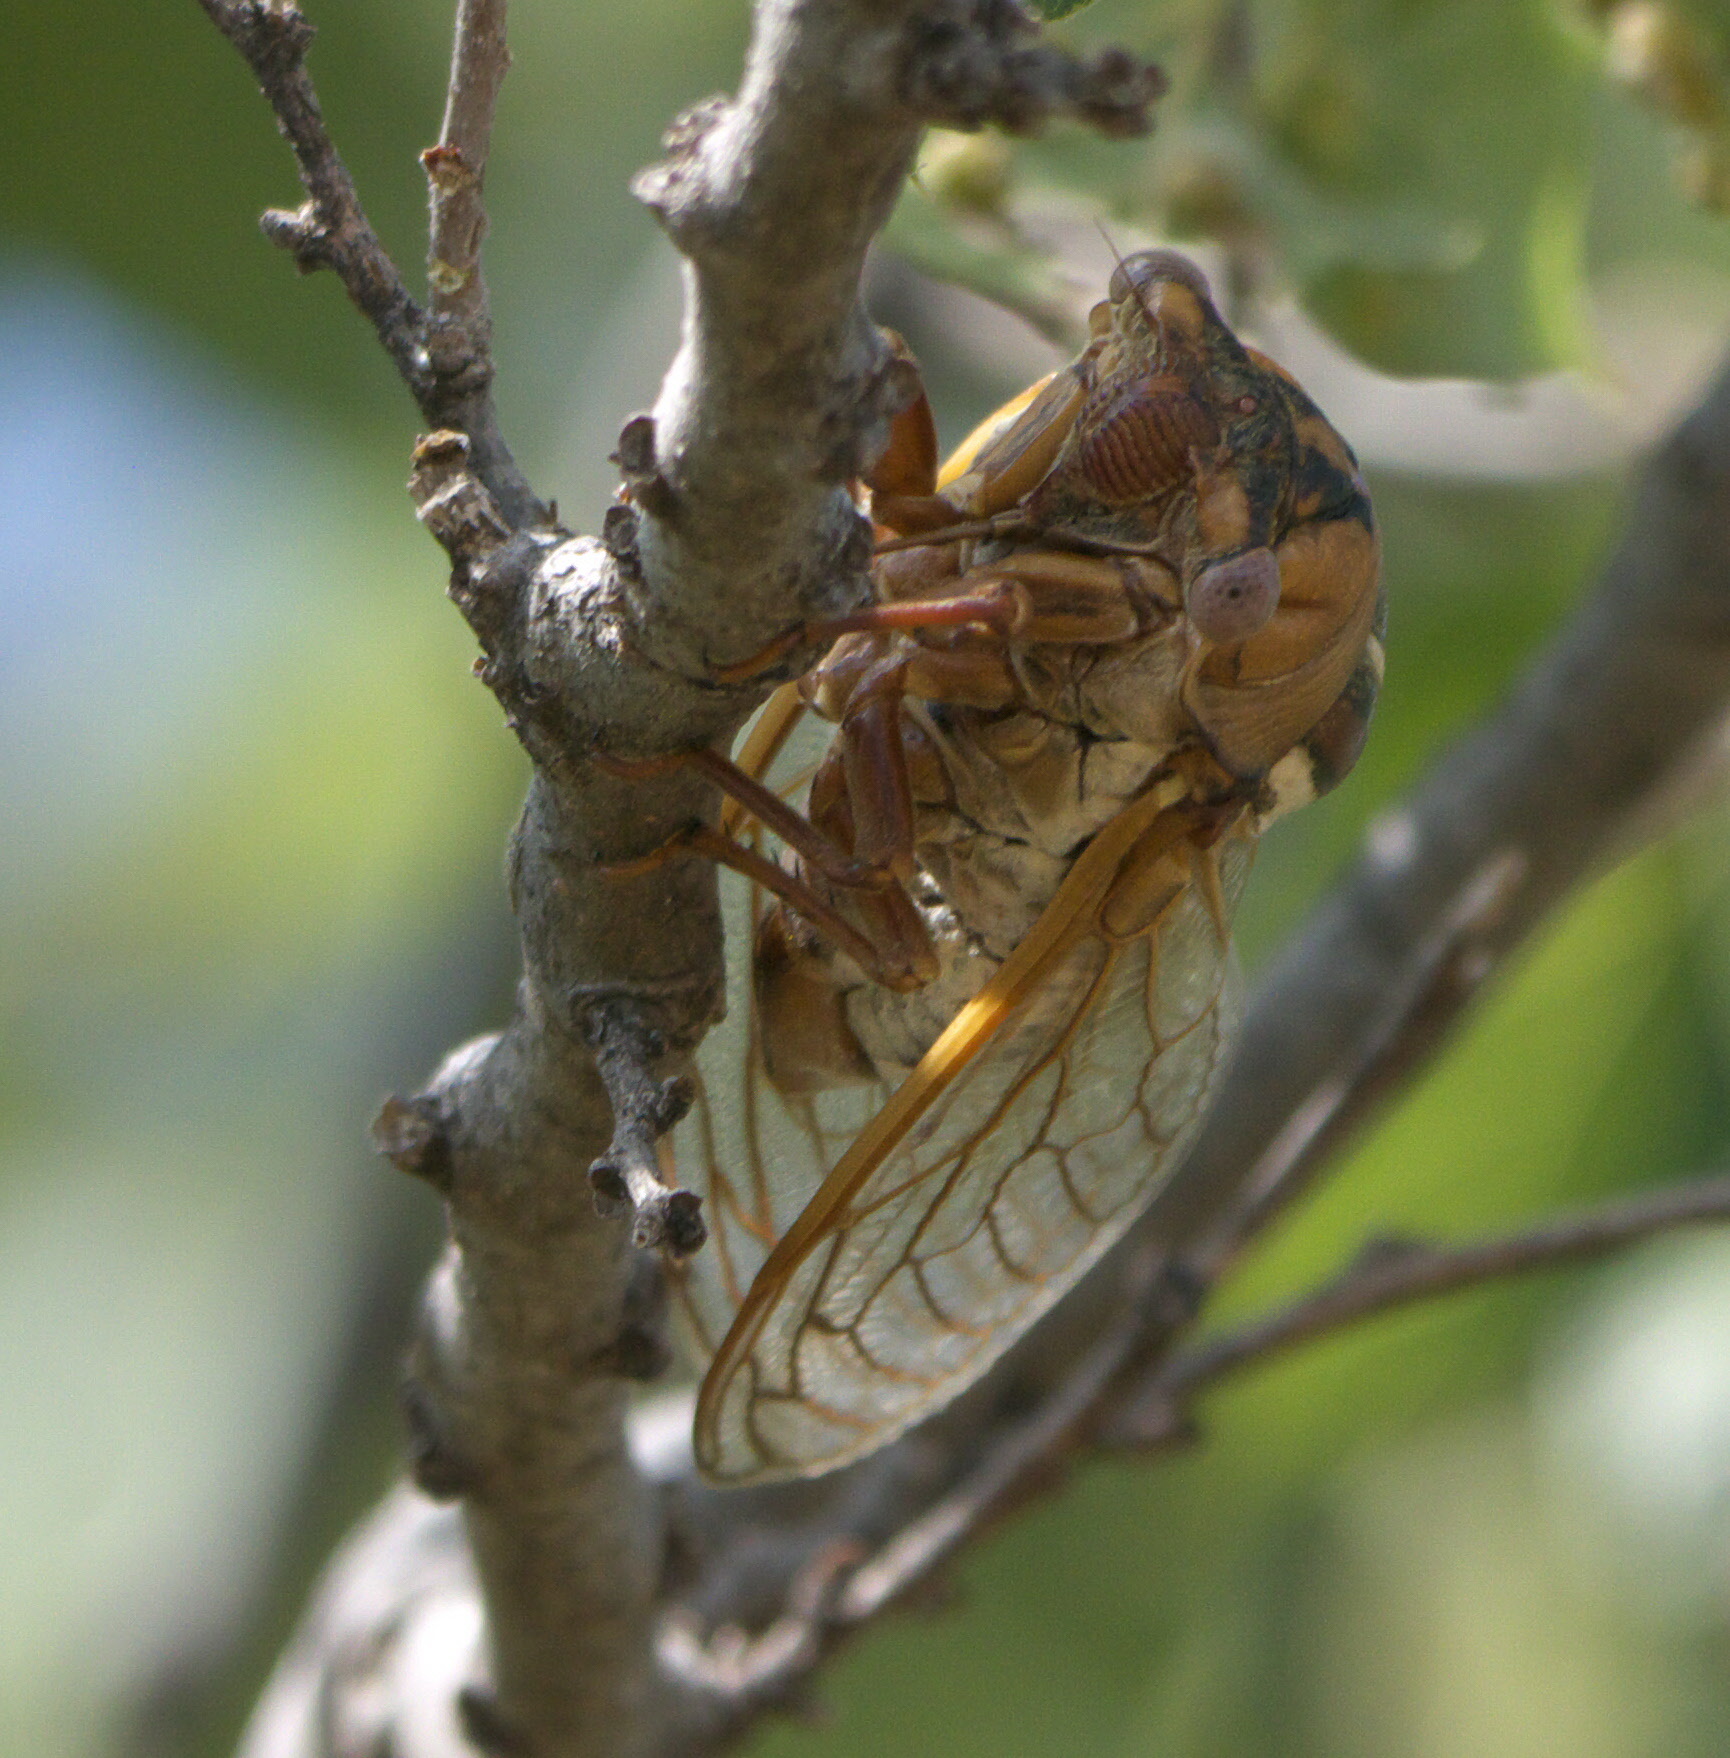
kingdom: Animalia
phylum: Arthropoda
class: Insecta
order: Hemiptera
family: Cicadidae
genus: Megatibicen
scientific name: Megatibicen dorsatus
